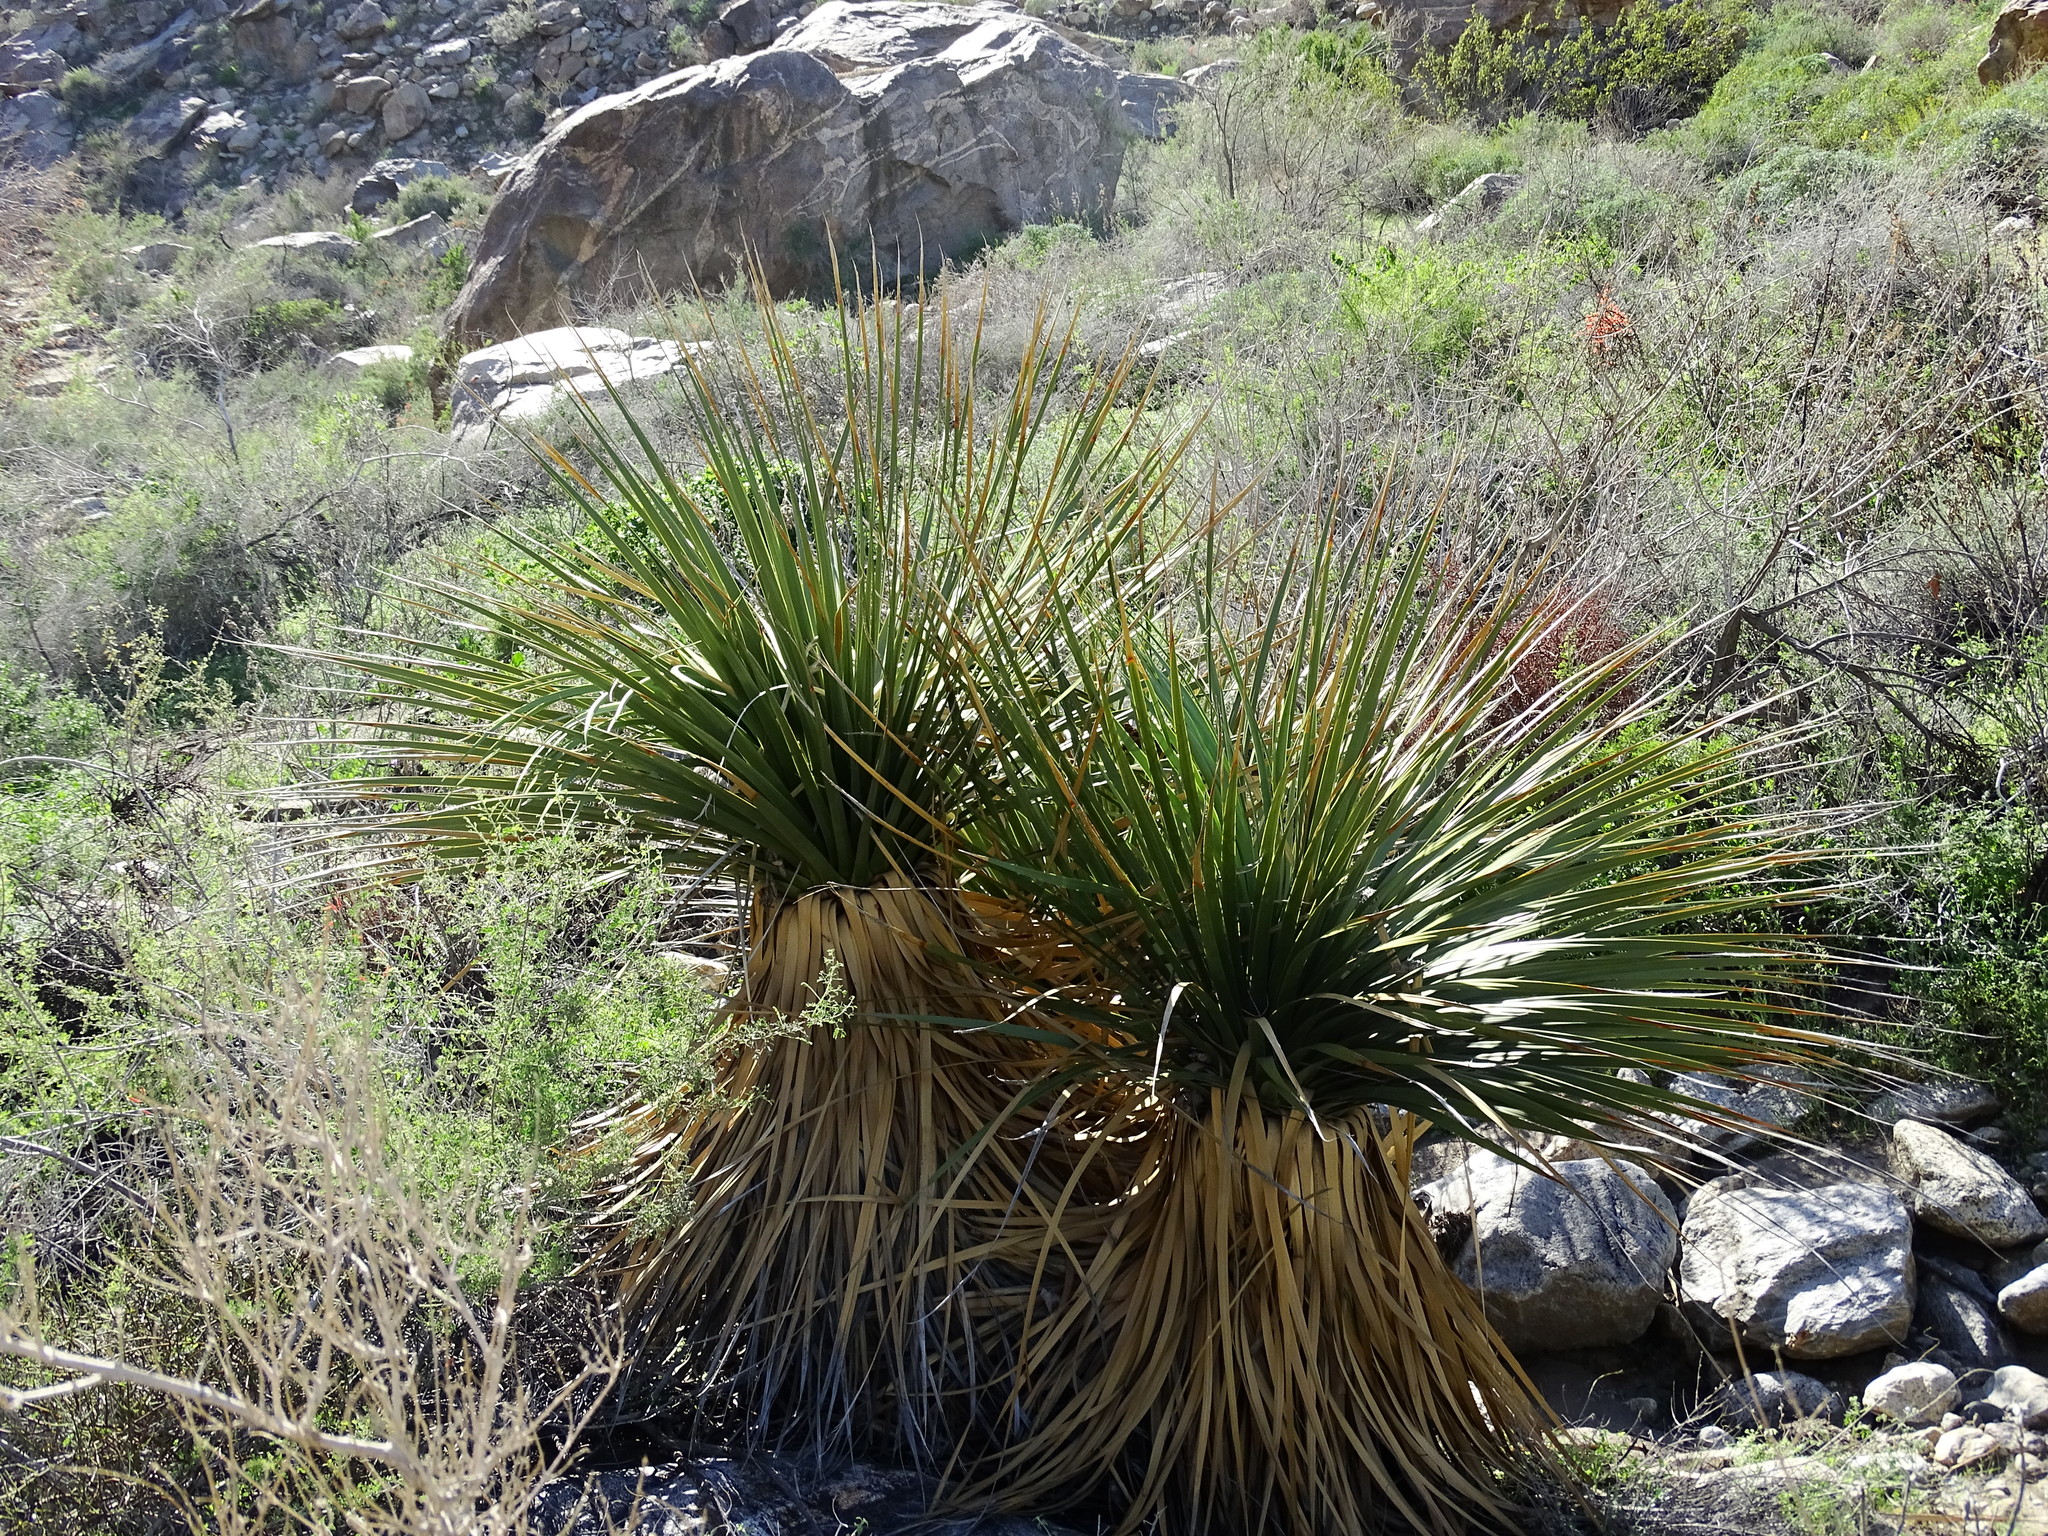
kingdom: Plantae
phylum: Tracheophyta
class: Liliopsida
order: Asparagales
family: Asparagaceae
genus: Nolina
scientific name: Nolina parryi
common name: Parry nolina
